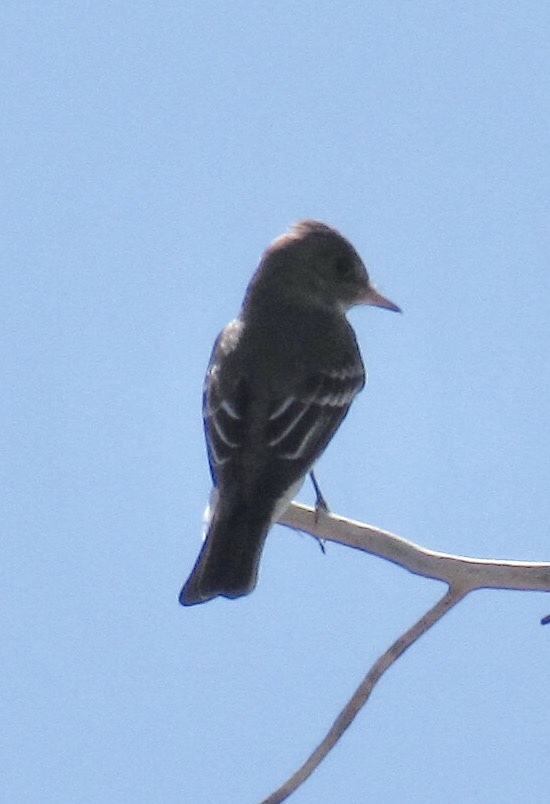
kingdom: Animalia
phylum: Chordata
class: Aves
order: Passeriformes
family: Tyrannidae
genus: Contopus
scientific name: Contopus sordidulus
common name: Western wood-pewee
